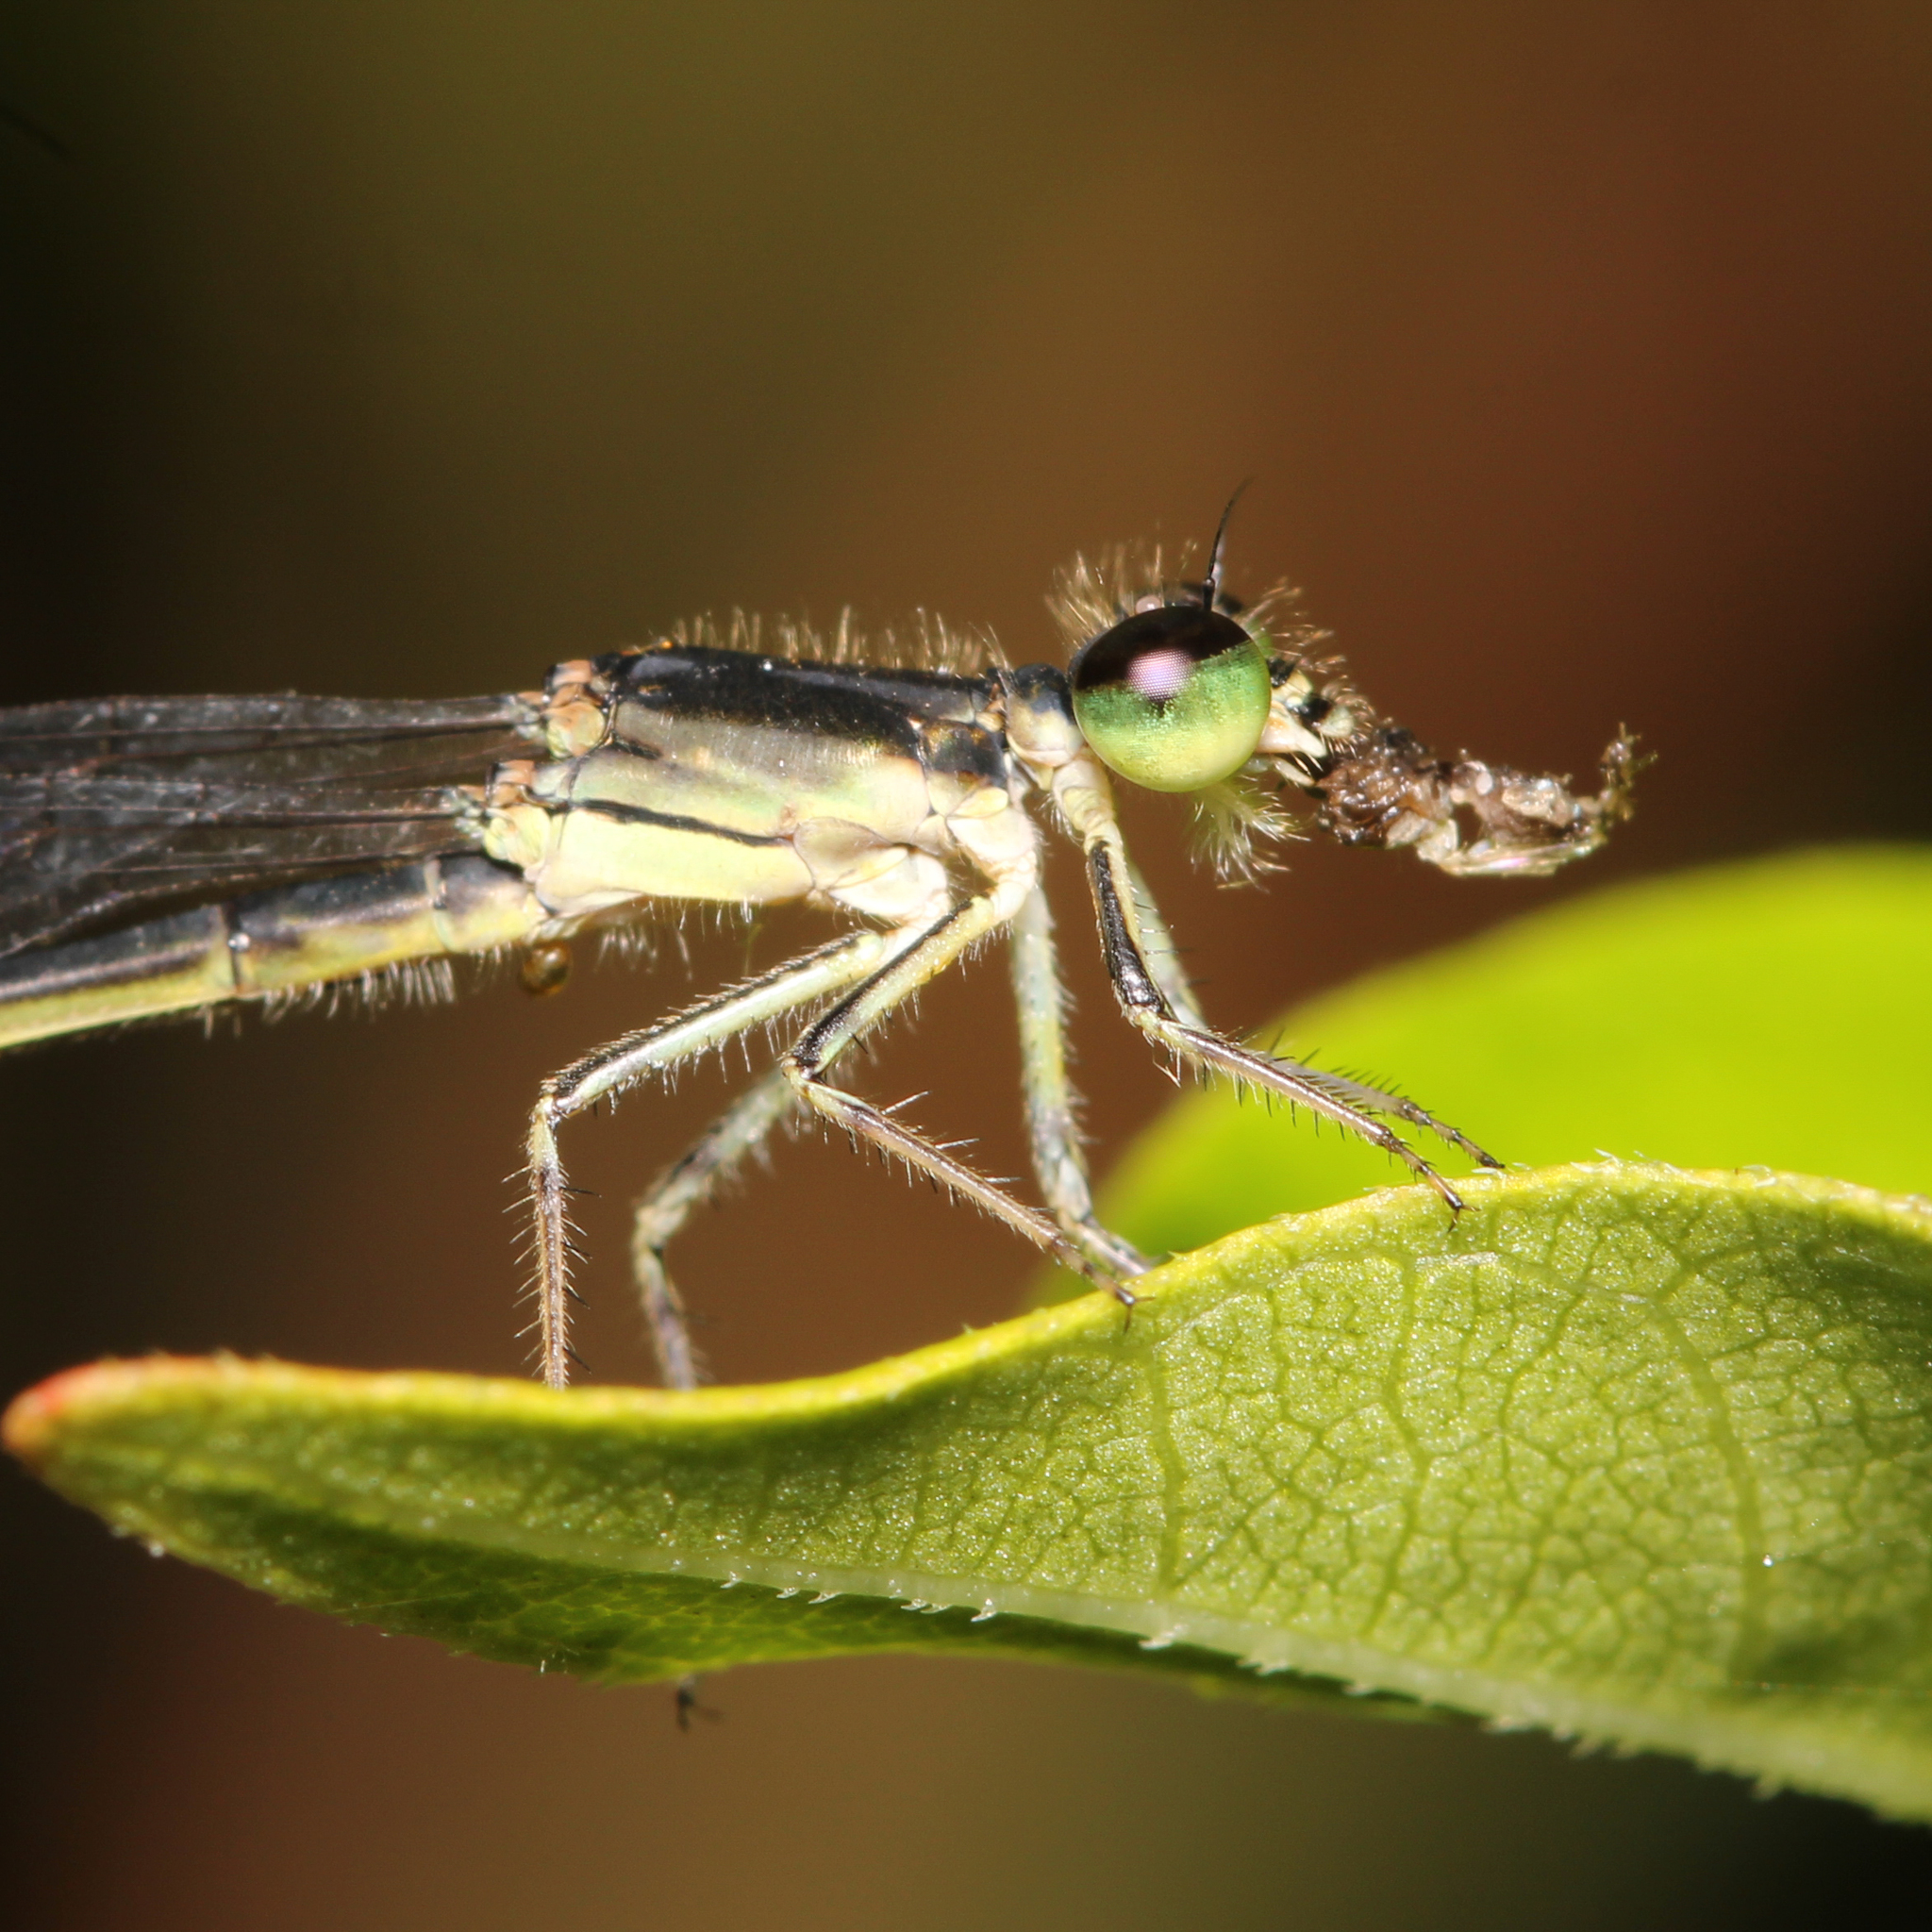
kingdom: Animalia
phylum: Arthropoda
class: Insecta
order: Odonata
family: Coenagrionidae
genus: Ischnura
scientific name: Ischnura posita
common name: Fragile forktail
